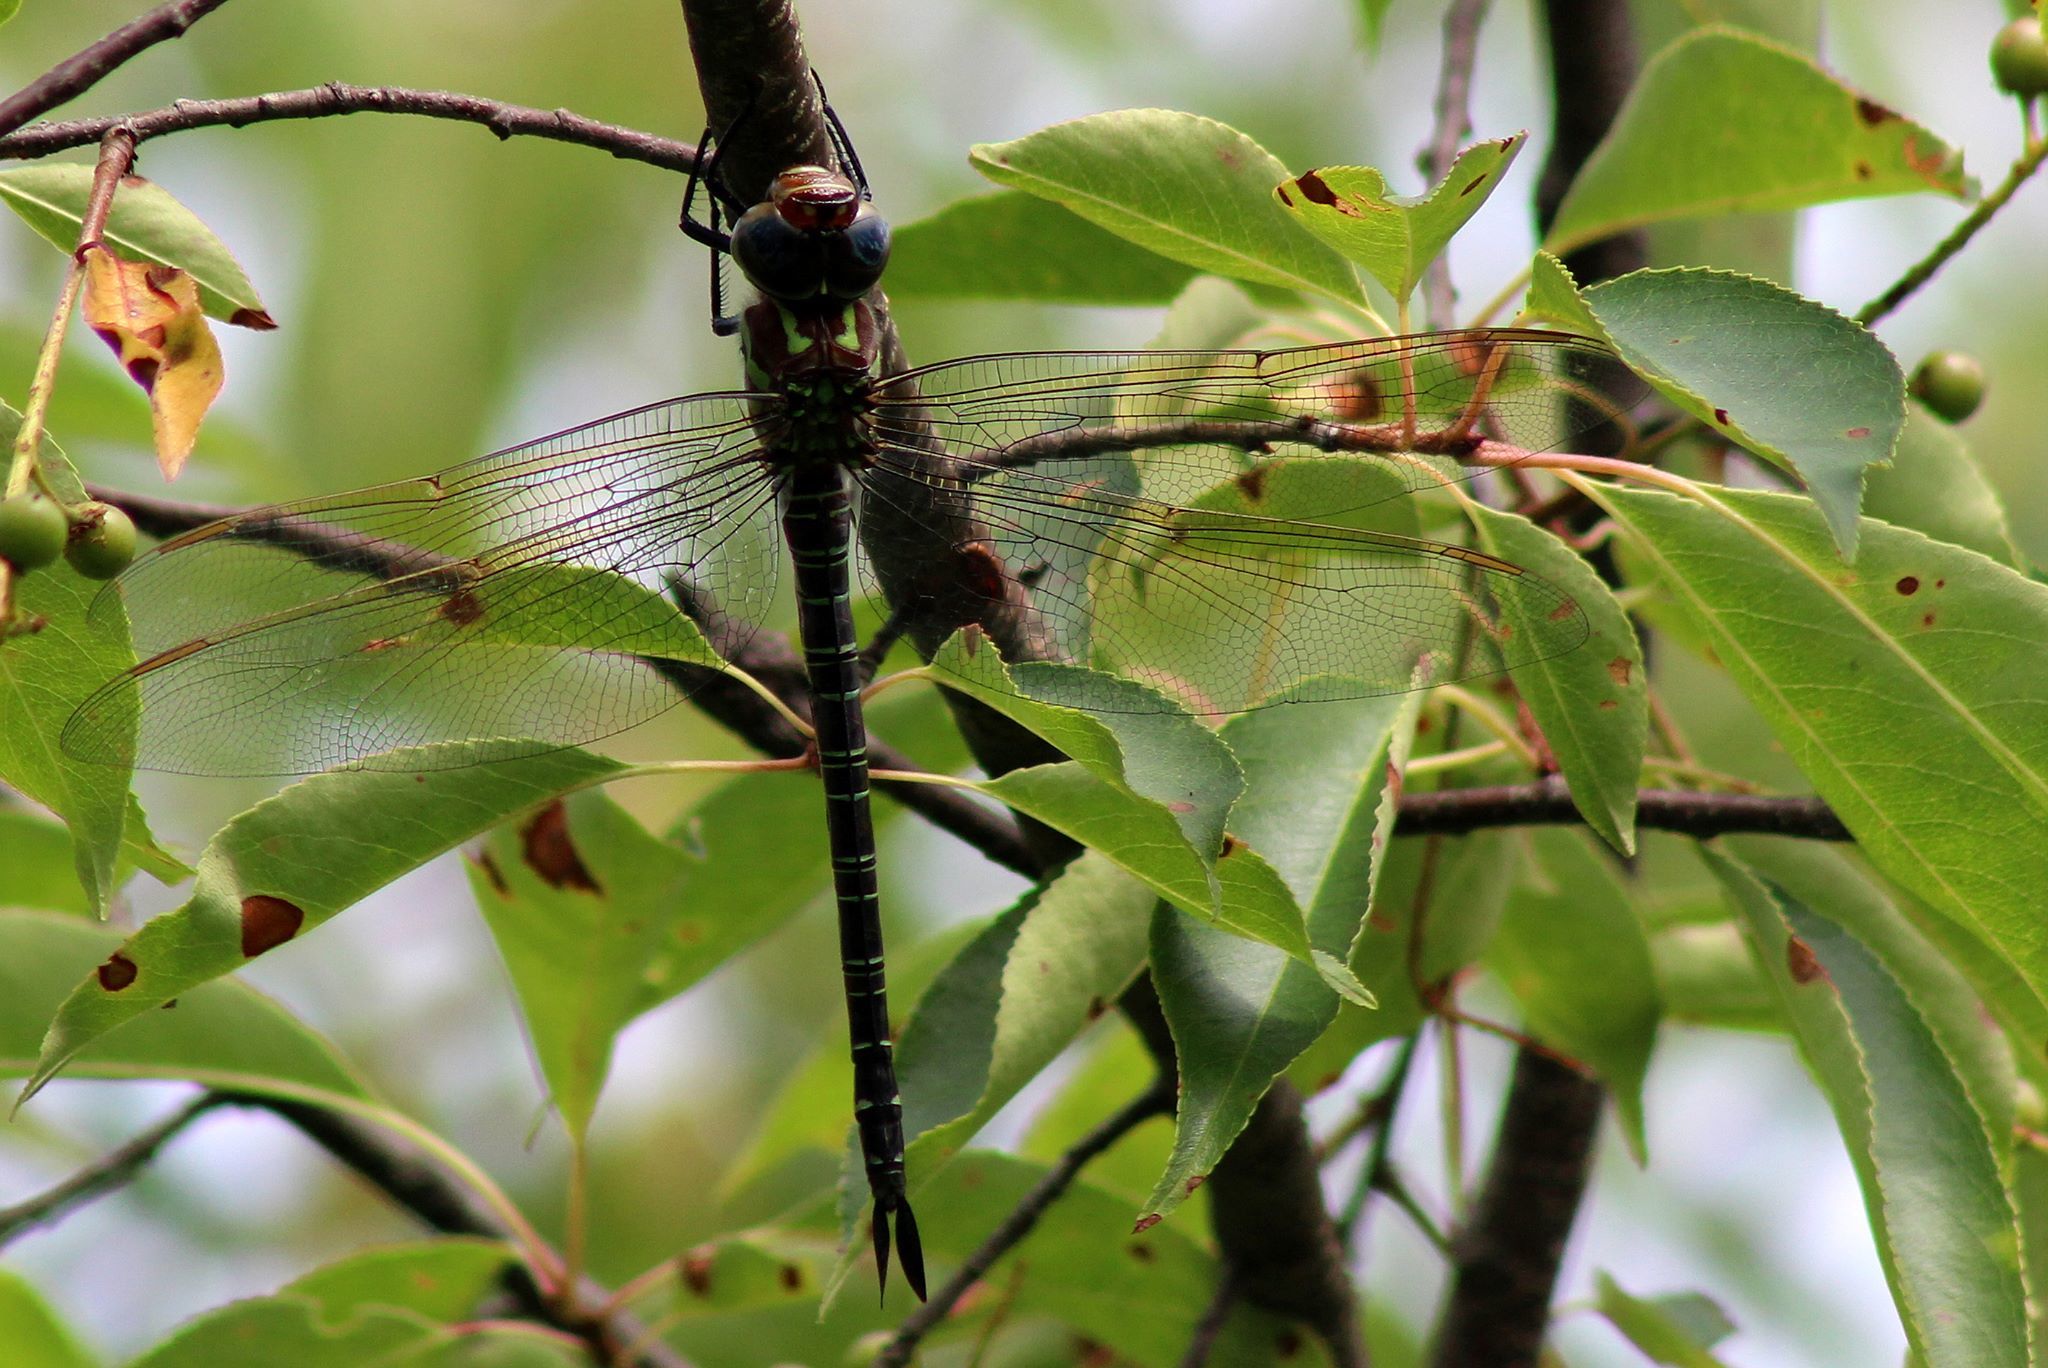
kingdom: Animalia
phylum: Arthropoda
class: Insecta
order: Odonata
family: Aeshnidae
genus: Epiaeschna
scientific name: Epiaeschna heros
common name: Swamp darner
